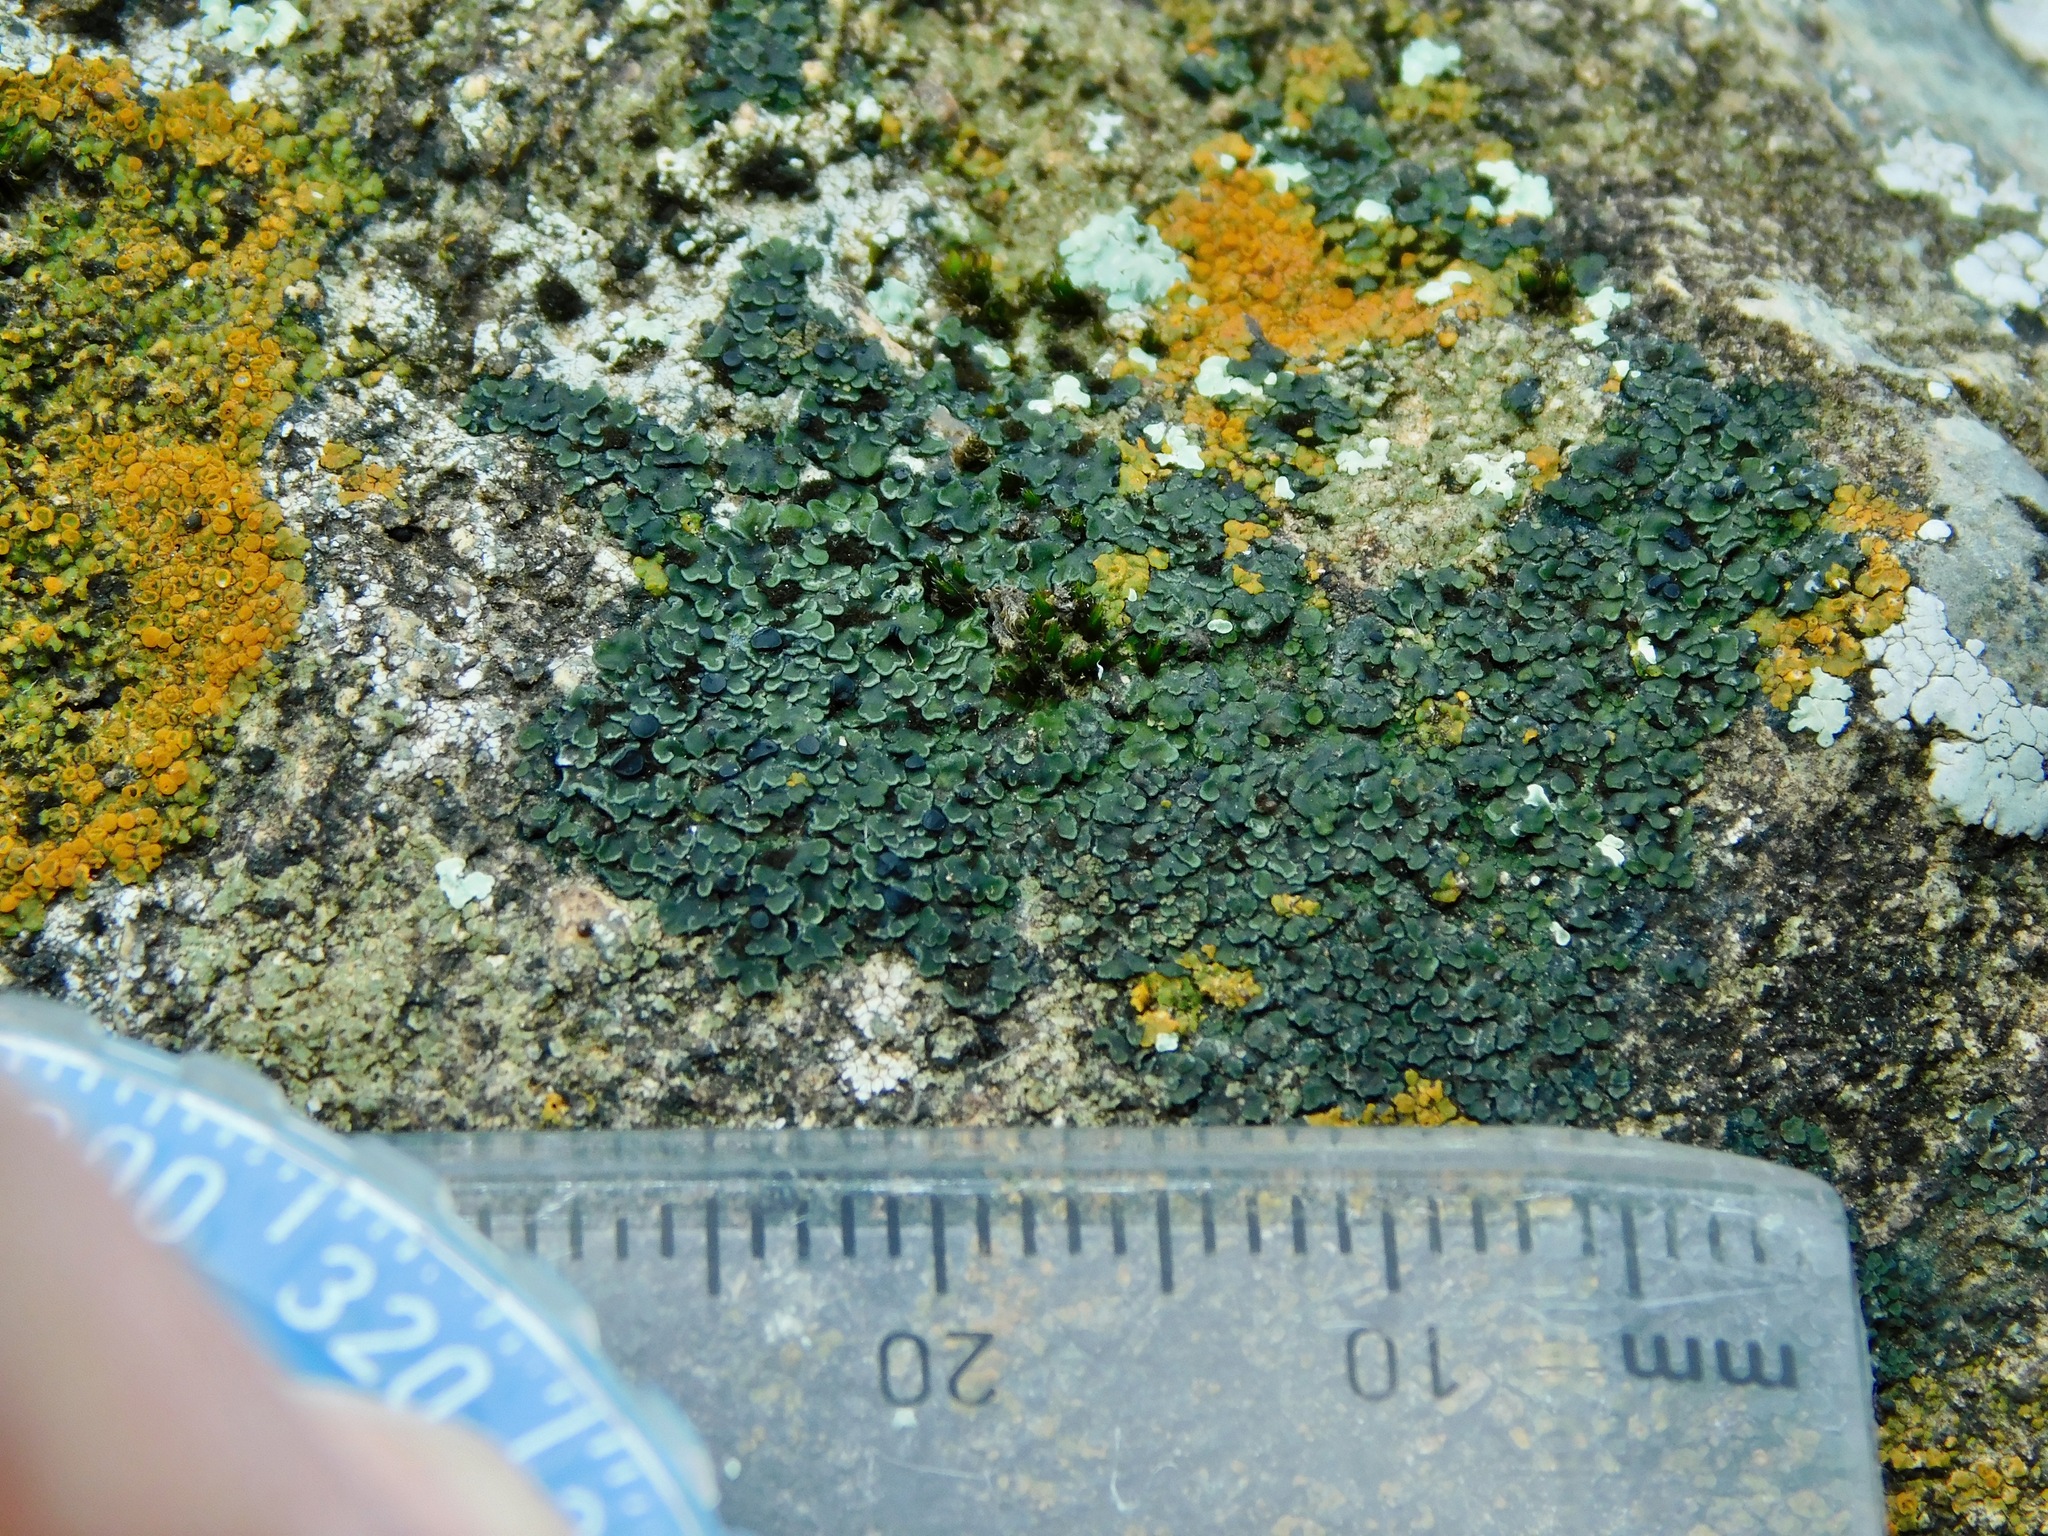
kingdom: Fungi
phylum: Ascomycota
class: Lecanoromycetes
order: Lecanorales
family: Psoraceae
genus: Psorula
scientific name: Psorula rufonigra
